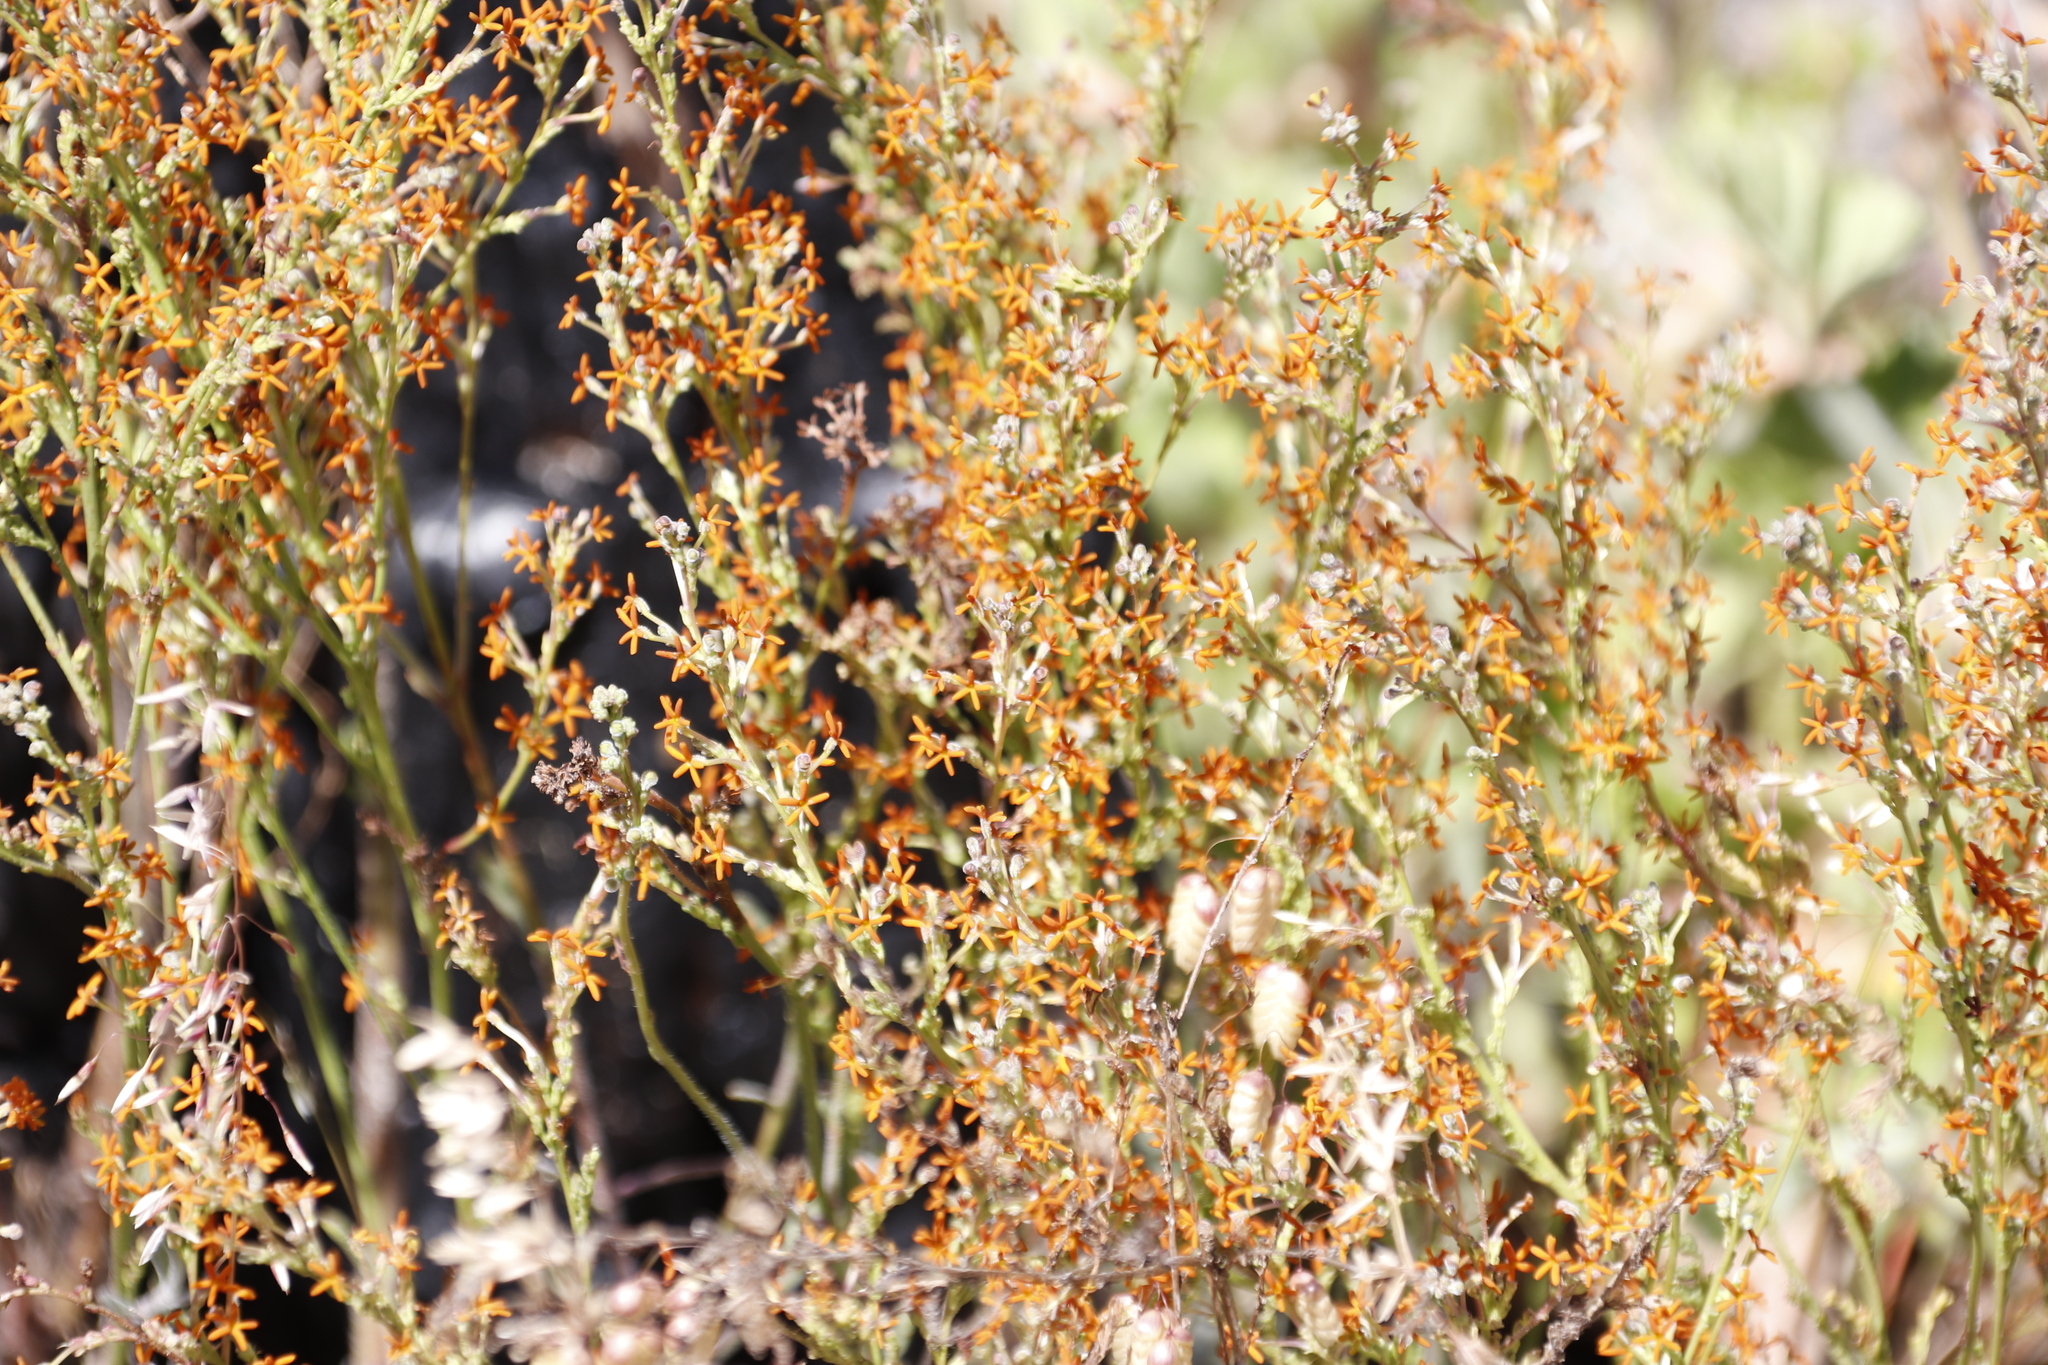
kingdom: Plantae
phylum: Tracheophyta
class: Magnoliopsida
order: Lamiales
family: Scrophulariaceae
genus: Manulea
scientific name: Manulea rubra
